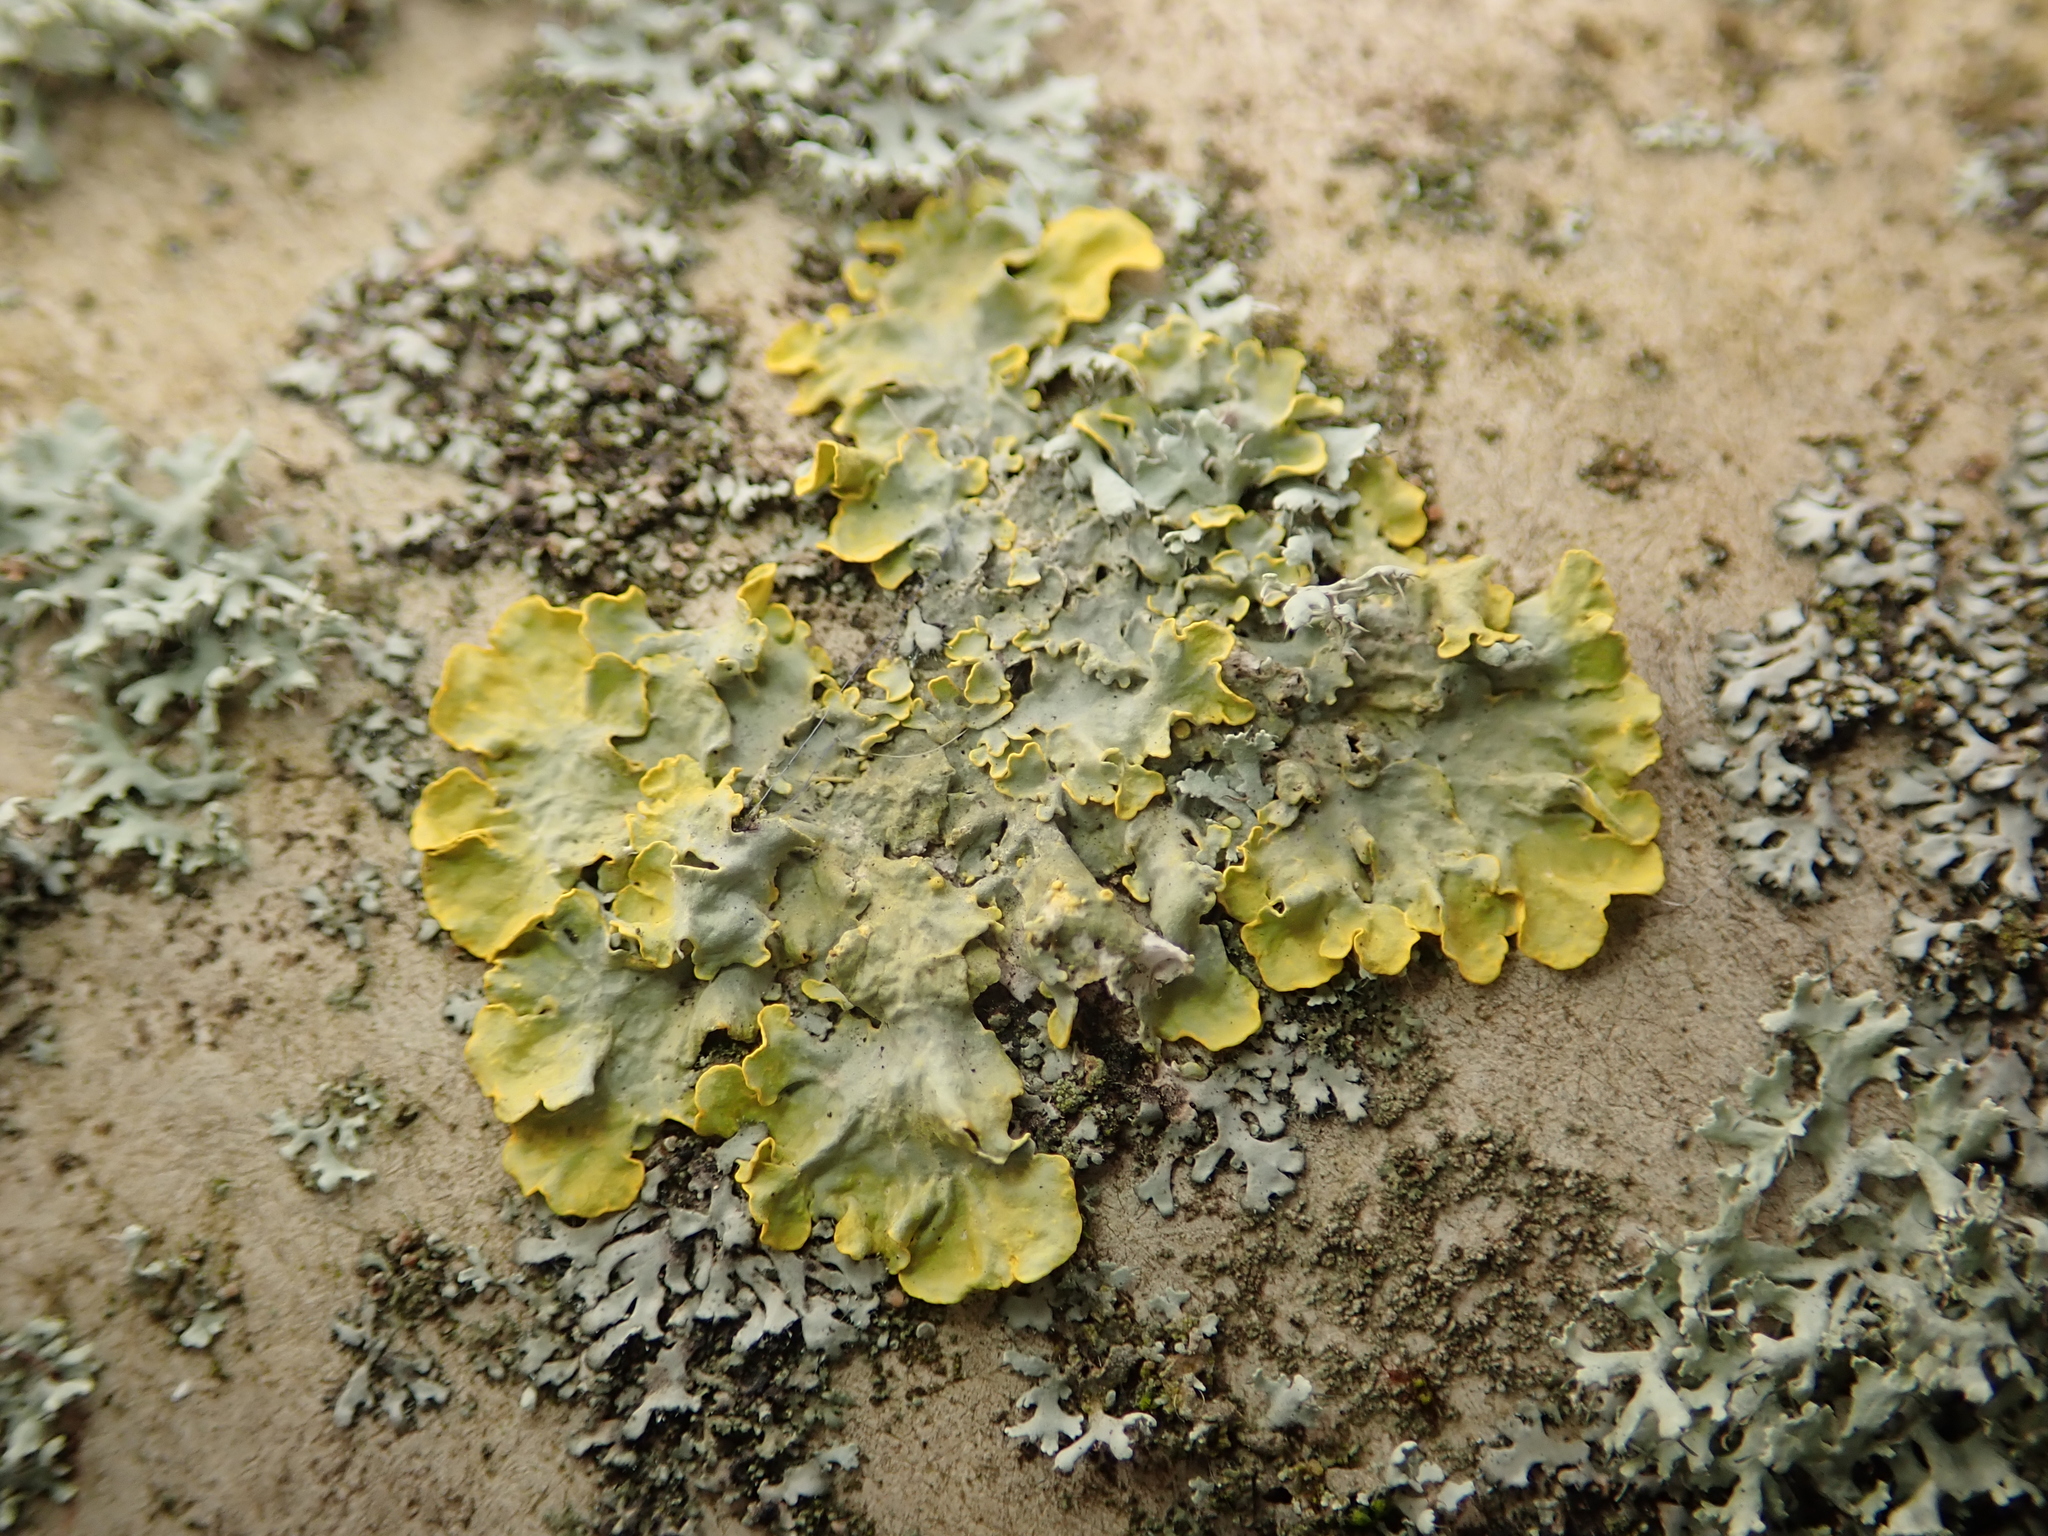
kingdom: Fungi
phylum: Ascomycota
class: Lecanoromycetes
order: Teloschistales
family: Teloschistaceae
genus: Xanthoria
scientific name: Xanthoria parietina
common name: Common orange lichen
